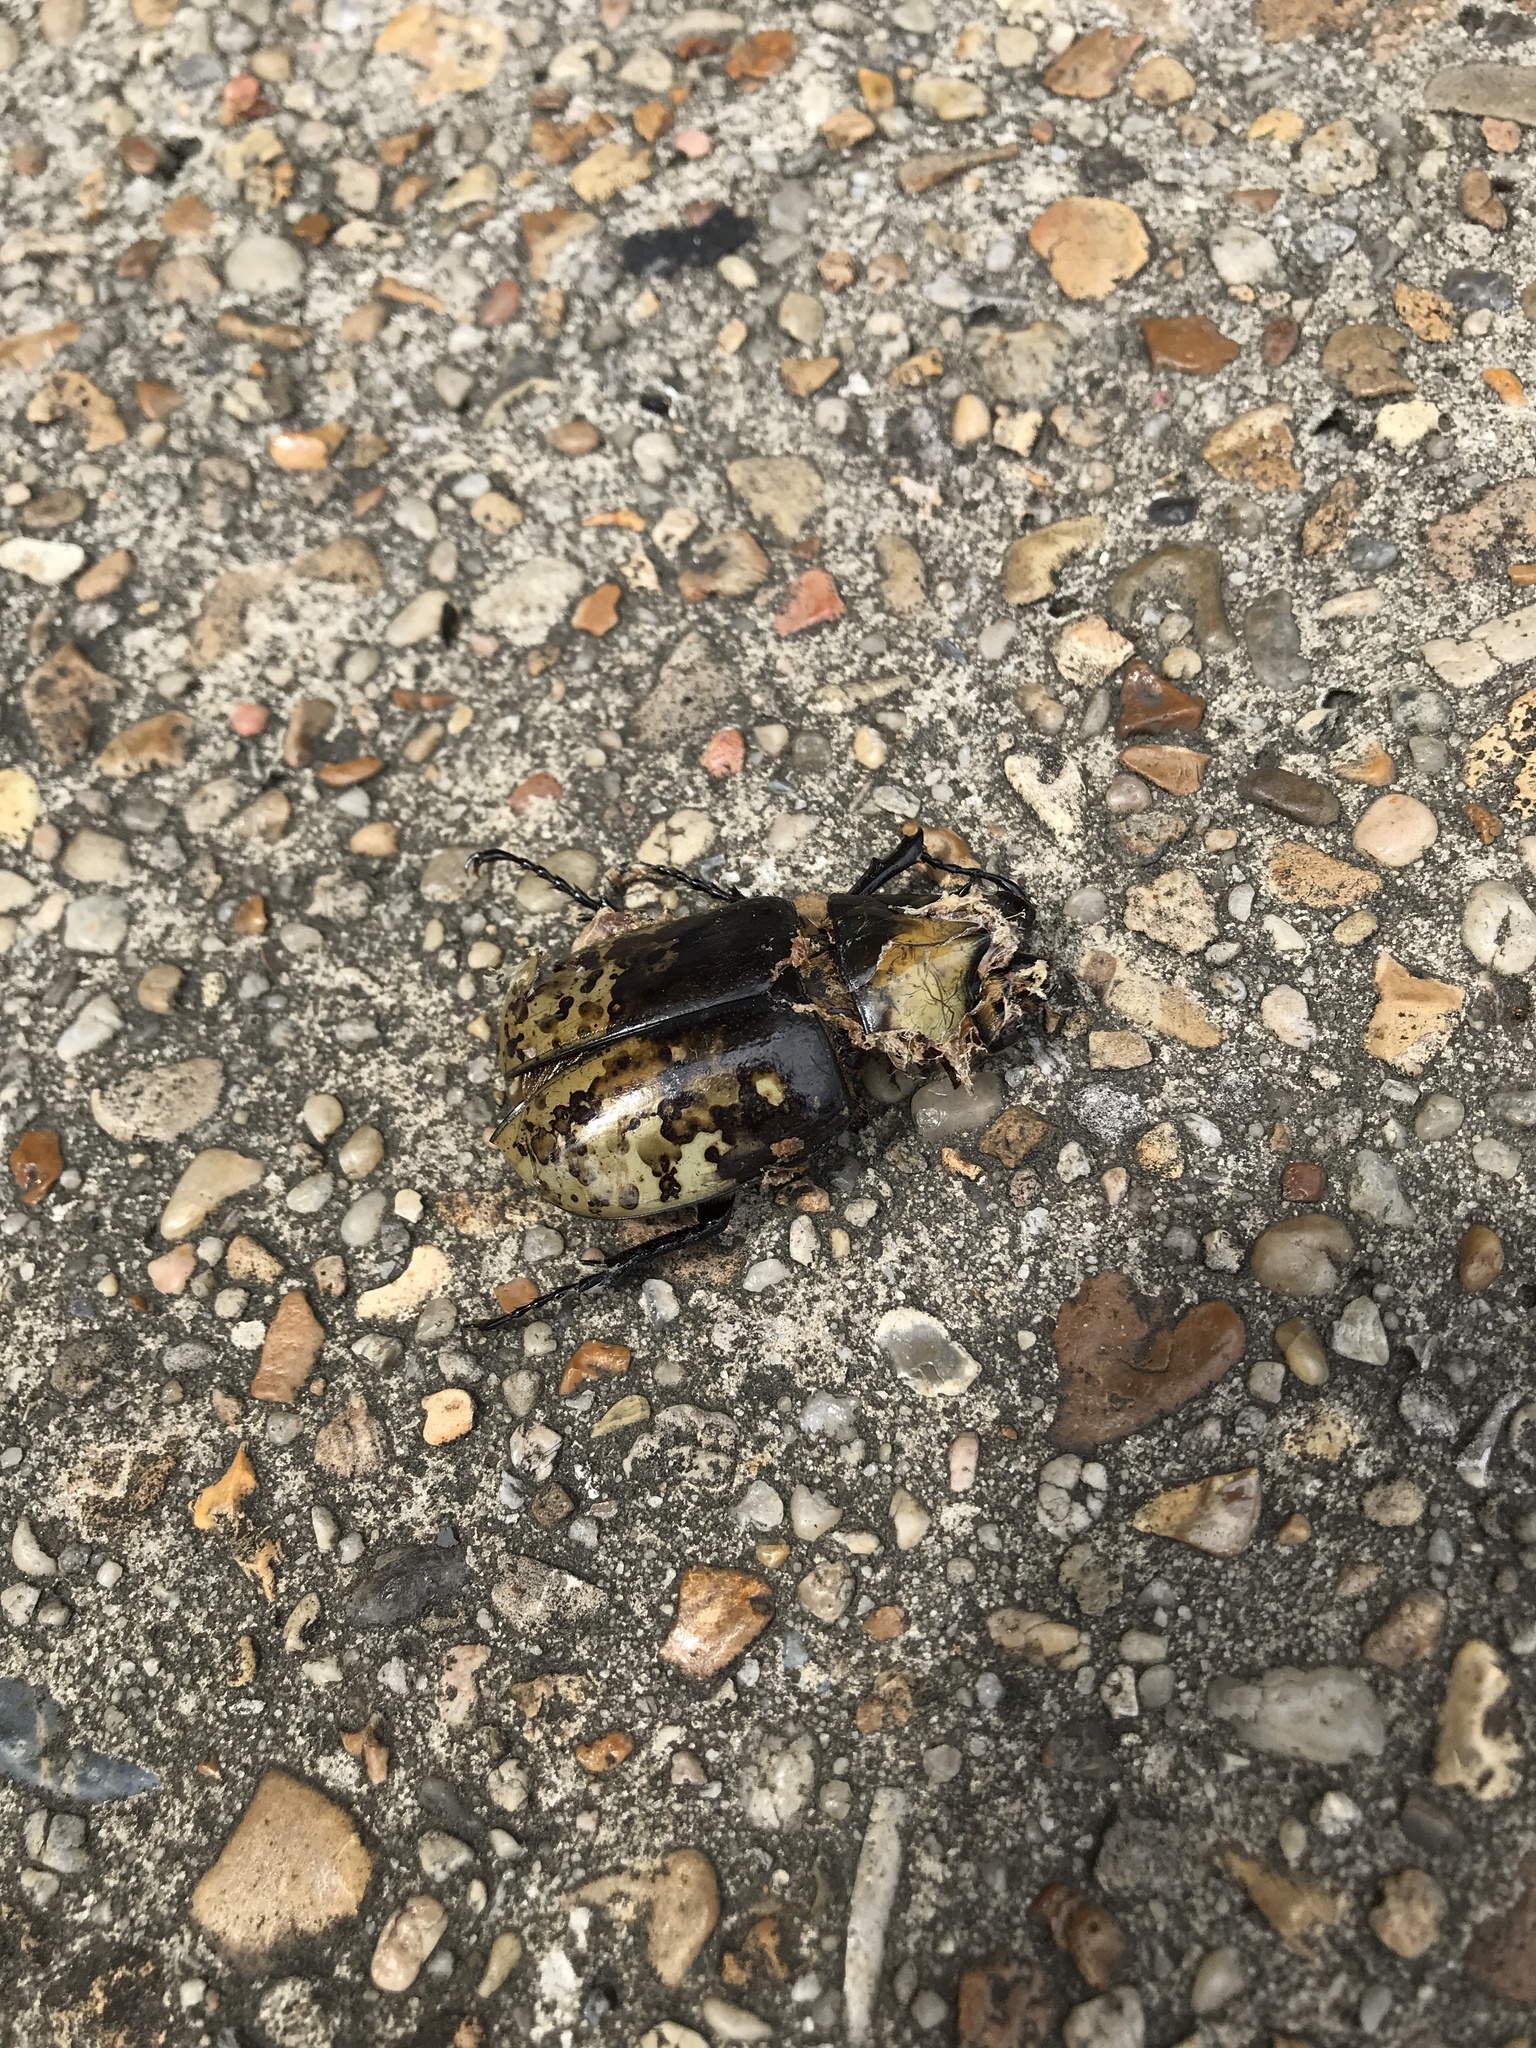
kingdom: Animalia
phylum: Arthropoda
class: Insecta
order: Coleoptera
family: Scarabaeidae
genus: Dynastes
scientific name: Dynastes tityus
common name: Eastern hercules beetle
